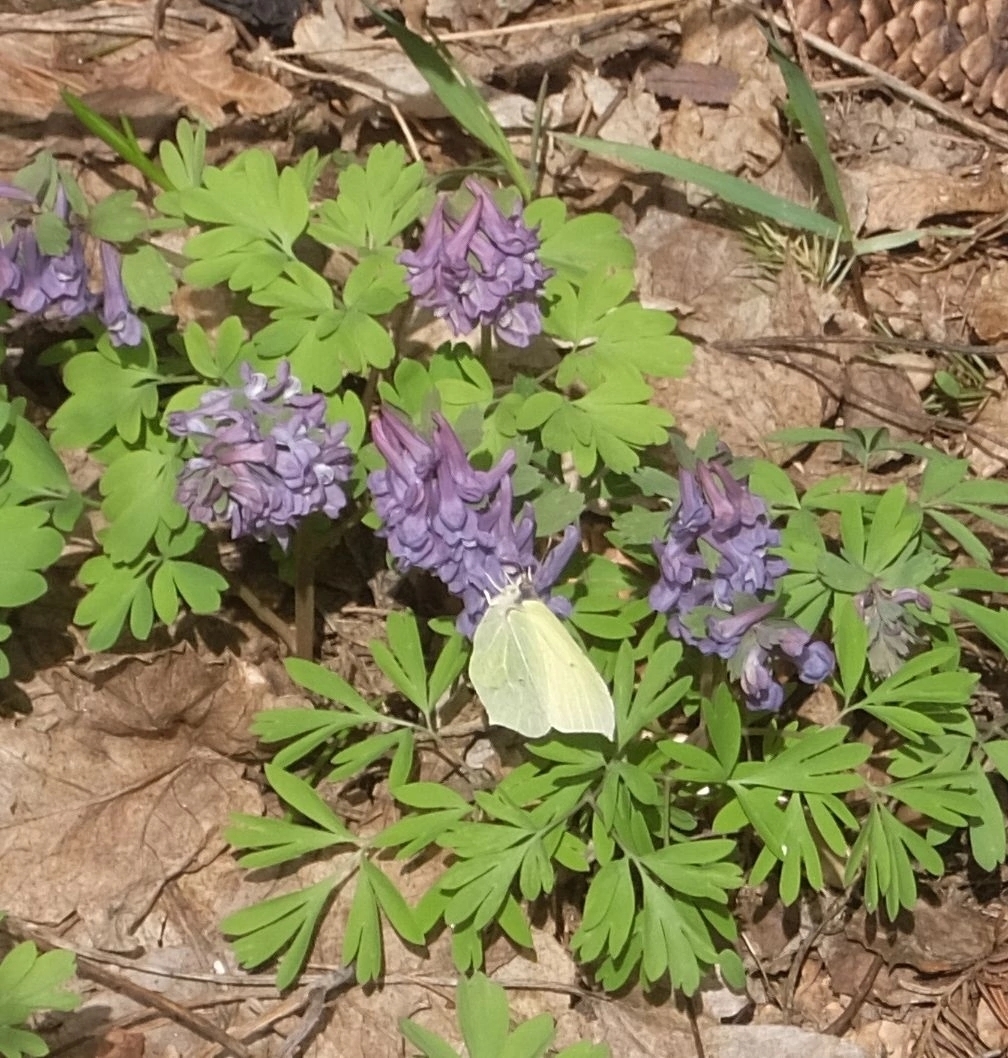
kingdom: Plantae
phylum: Tracheophyta
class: Magnoliopsida
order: Ranunculales
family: Papaveraceae
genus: Corydalis
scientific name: Corydalis solida
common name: Bird-in-a-bush
